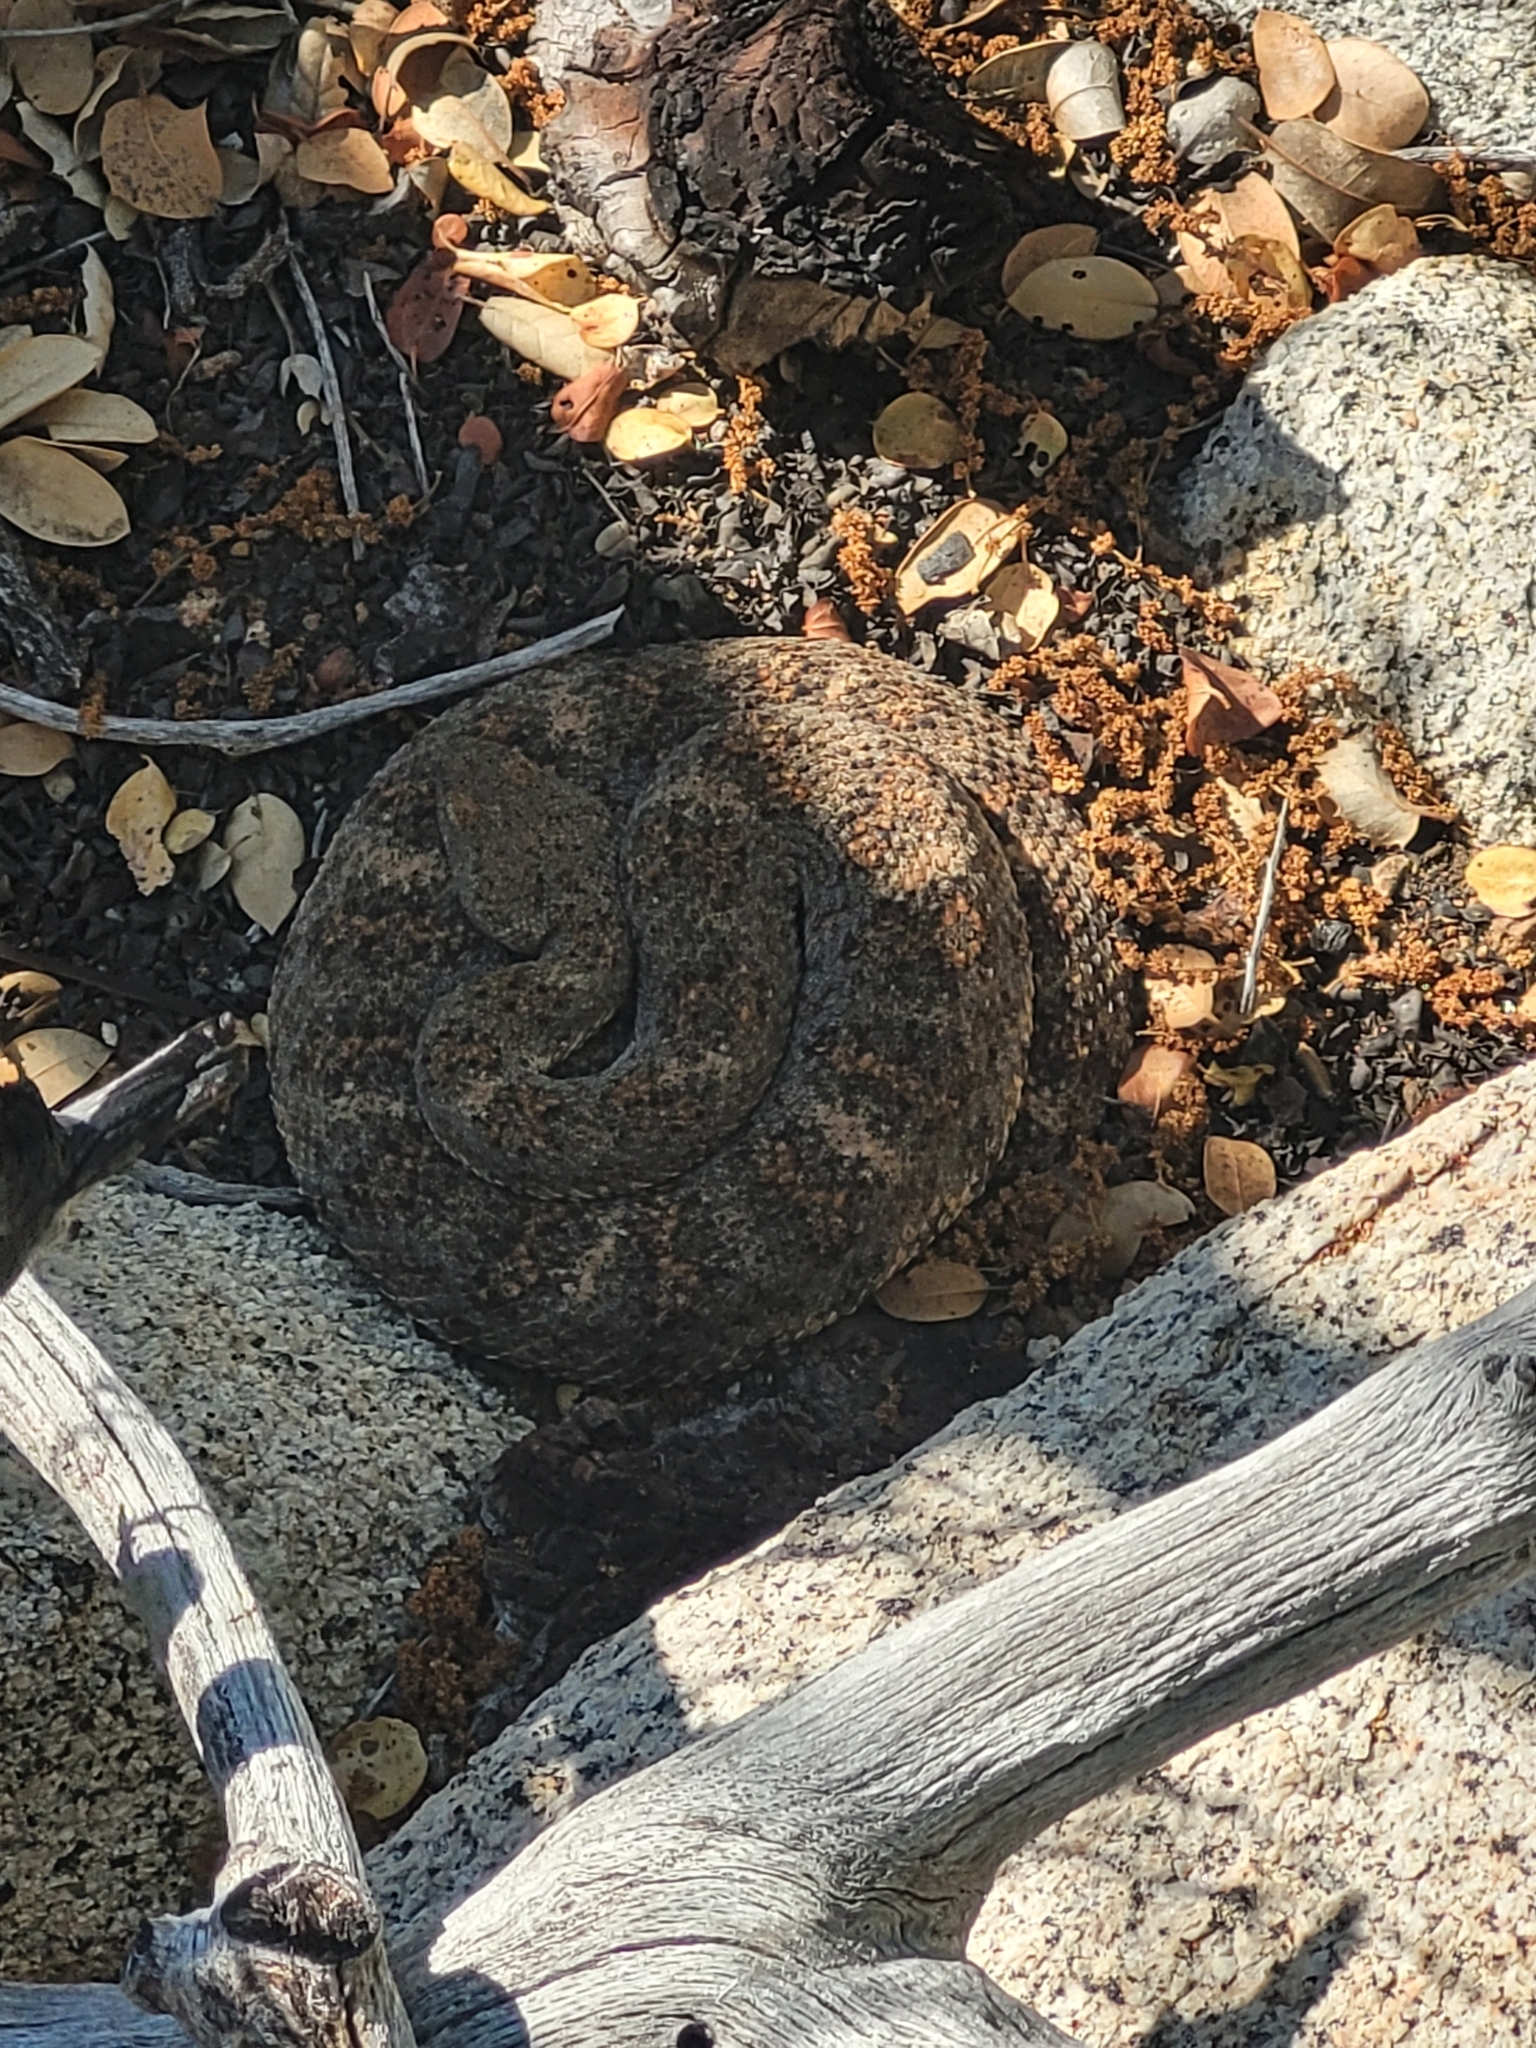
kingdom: Animalia
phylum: Chordata
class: Squamata
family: Viperidae
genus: Crotalus
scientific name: Crotalus pyrrhus
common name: Southwestern speckled rattlesnake
